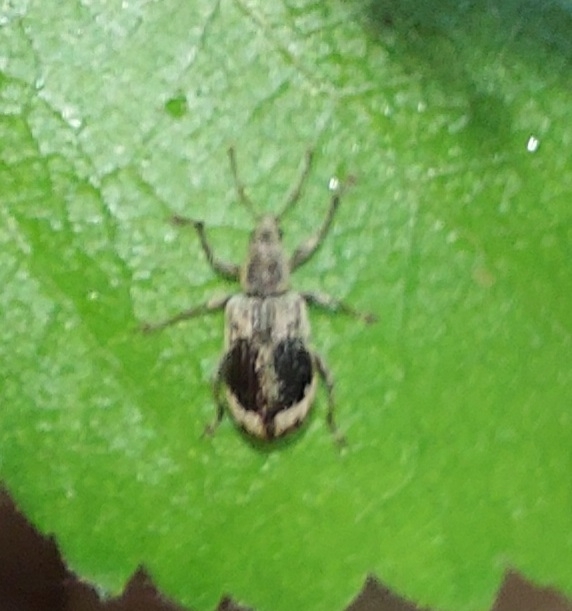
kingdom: Animalia
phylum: Arthropoda
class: Insecta
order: Coleoptera
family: Curculionidae
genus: Polydrusus
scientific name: Polydrusus tereticollis
